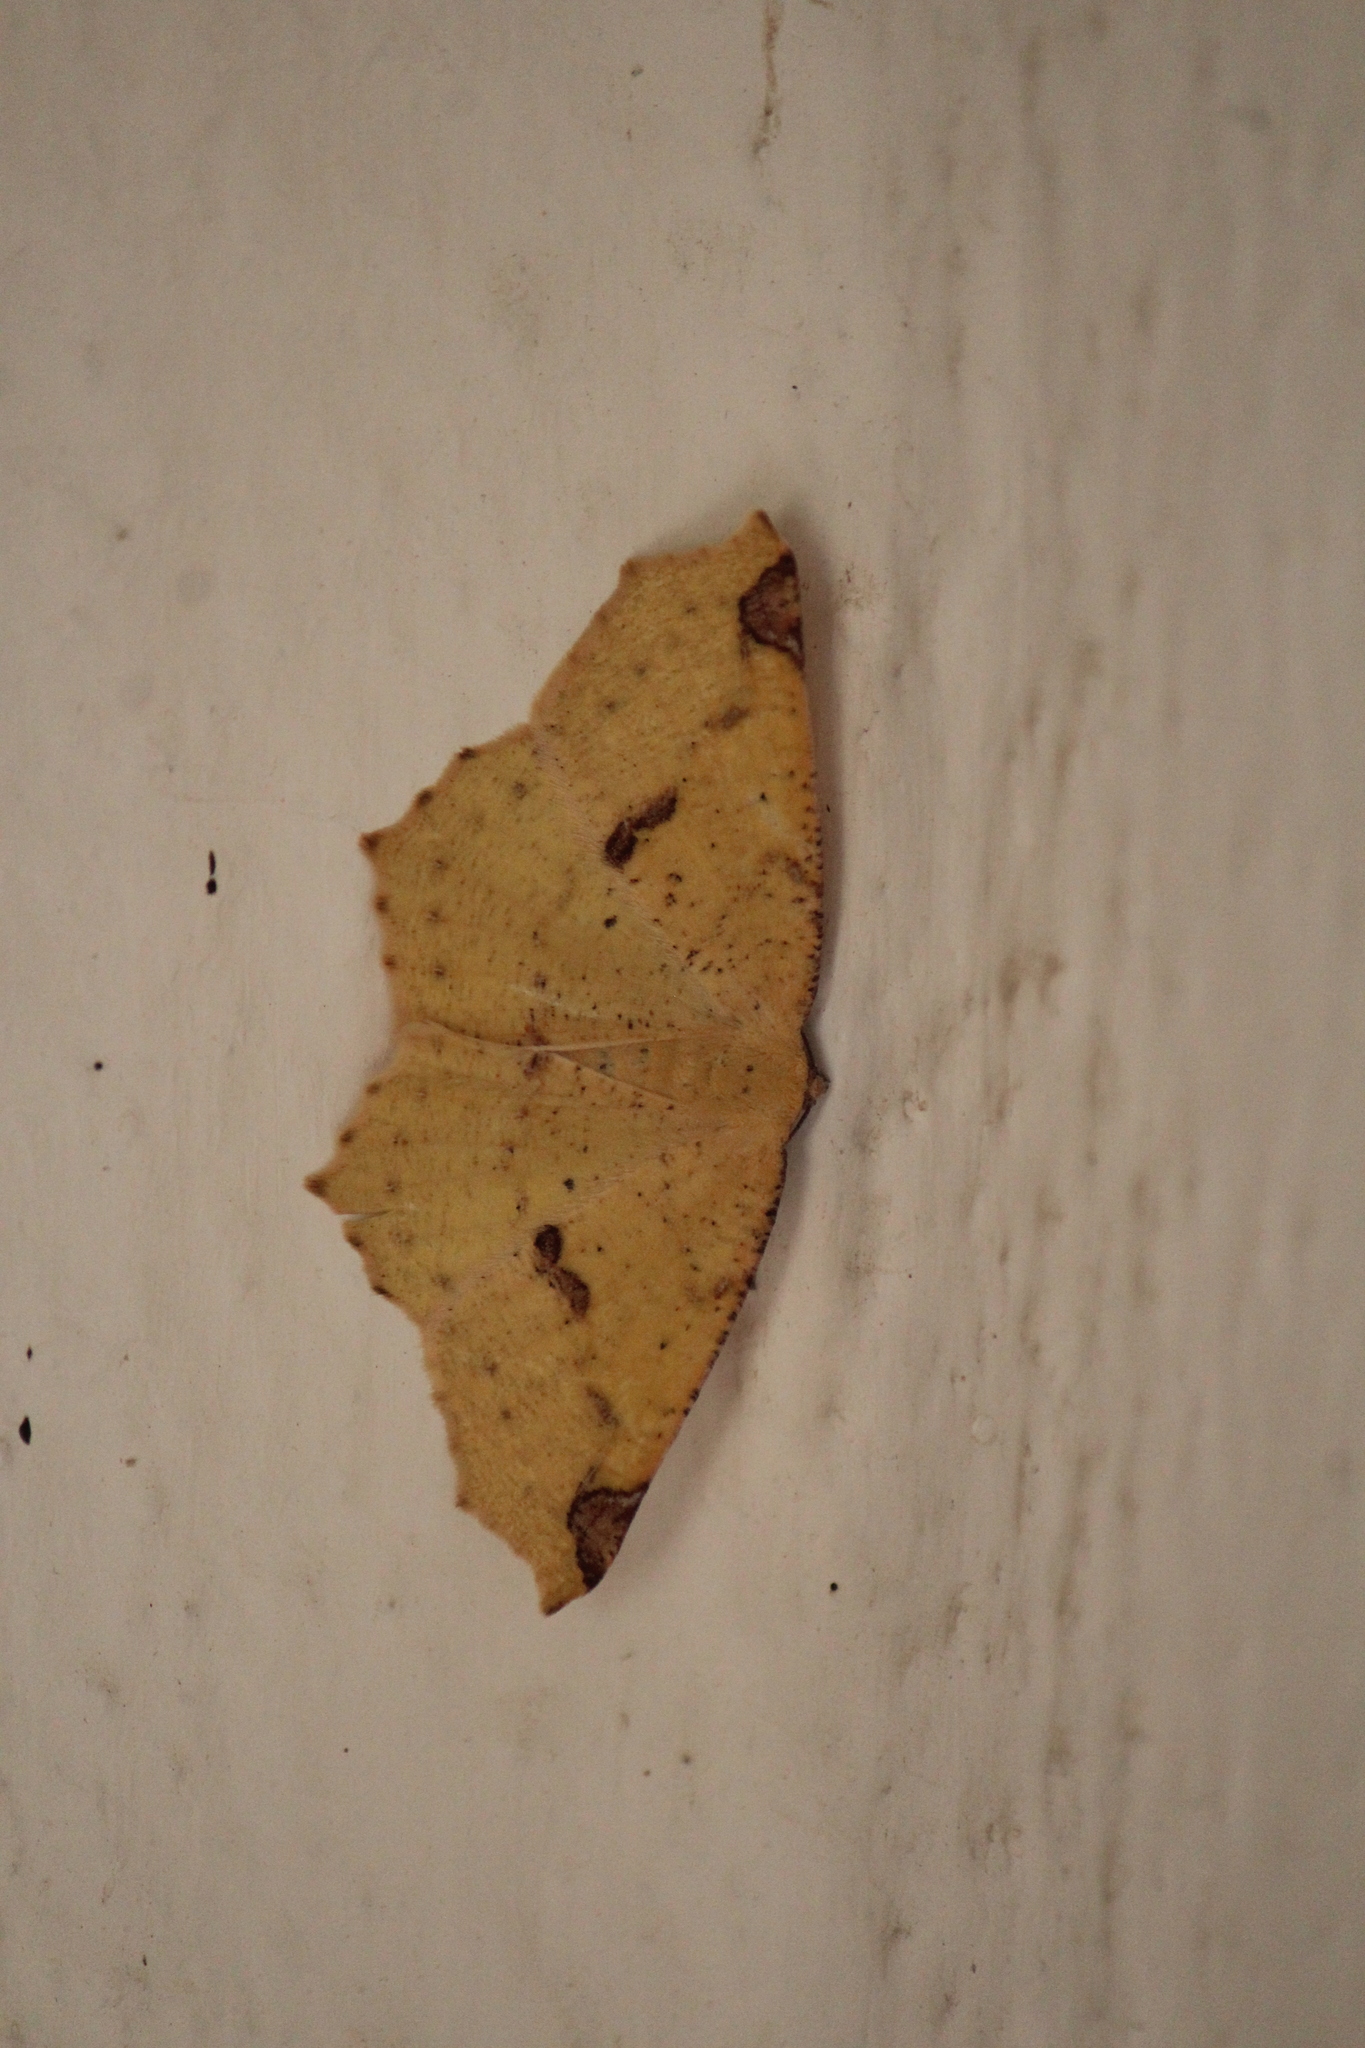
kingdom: Animalia
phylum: Arthropoda
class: Insecta
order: Lepidoptera
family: Geometridae
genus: Antepione
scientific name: Antepione thisoaria
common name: Variable antipione
